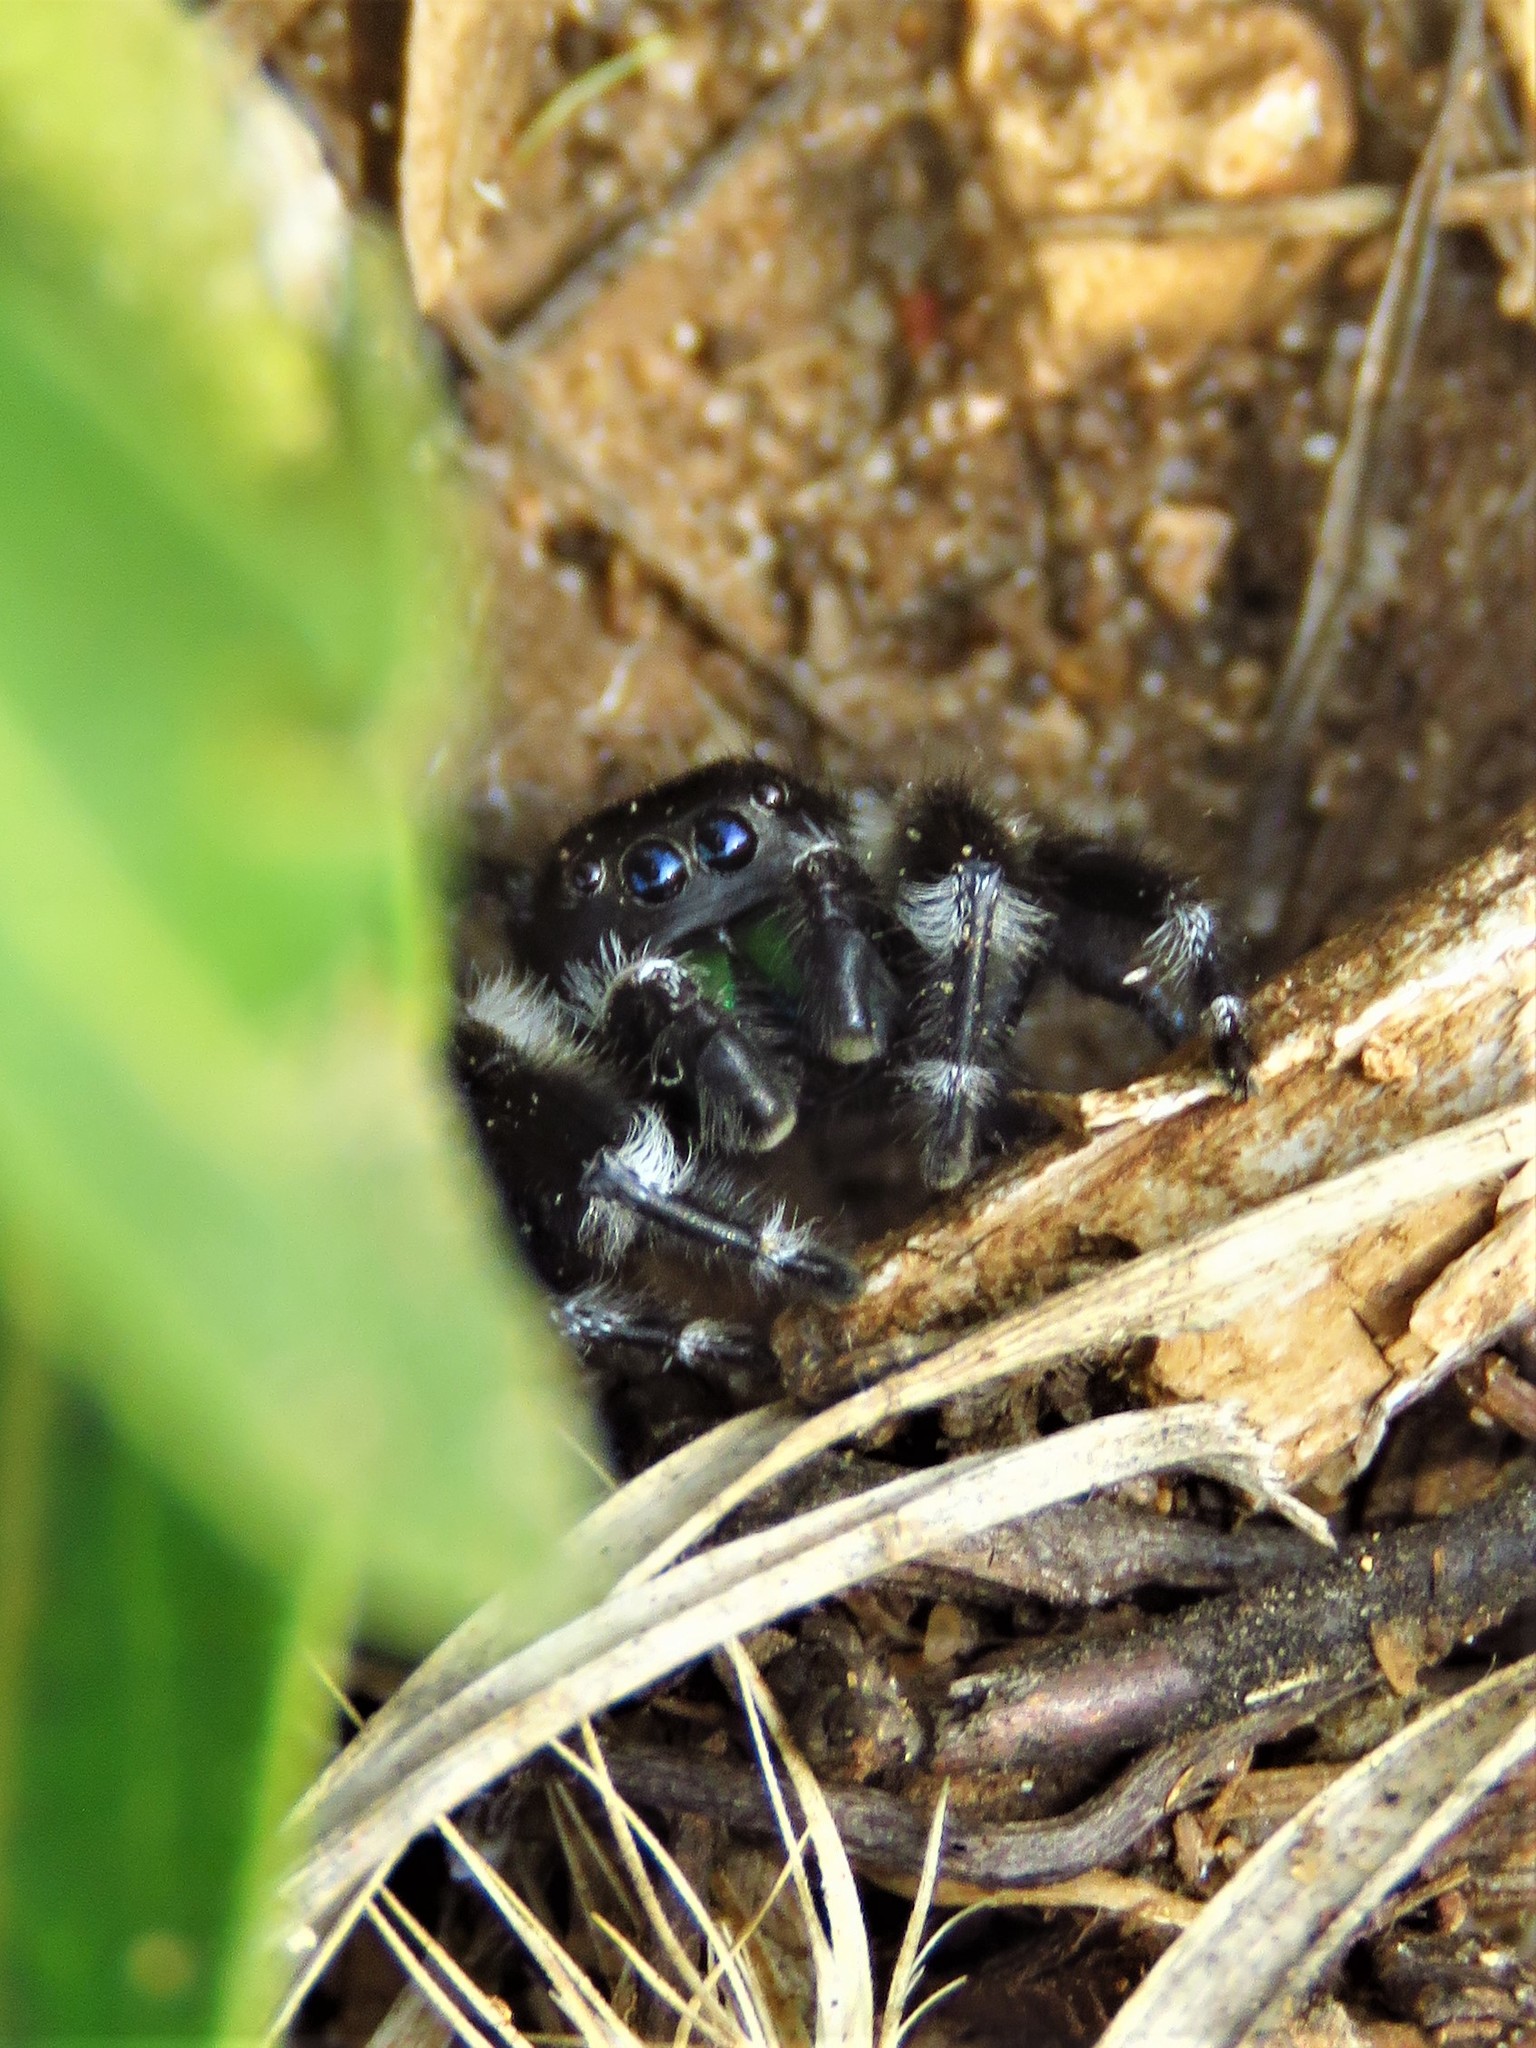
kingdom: Animalia
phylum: Arthropoda
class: Arachnida
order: Araneae
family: Salticidae
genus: Phidippus
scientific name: Phidippus audax
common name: Bold jumper
